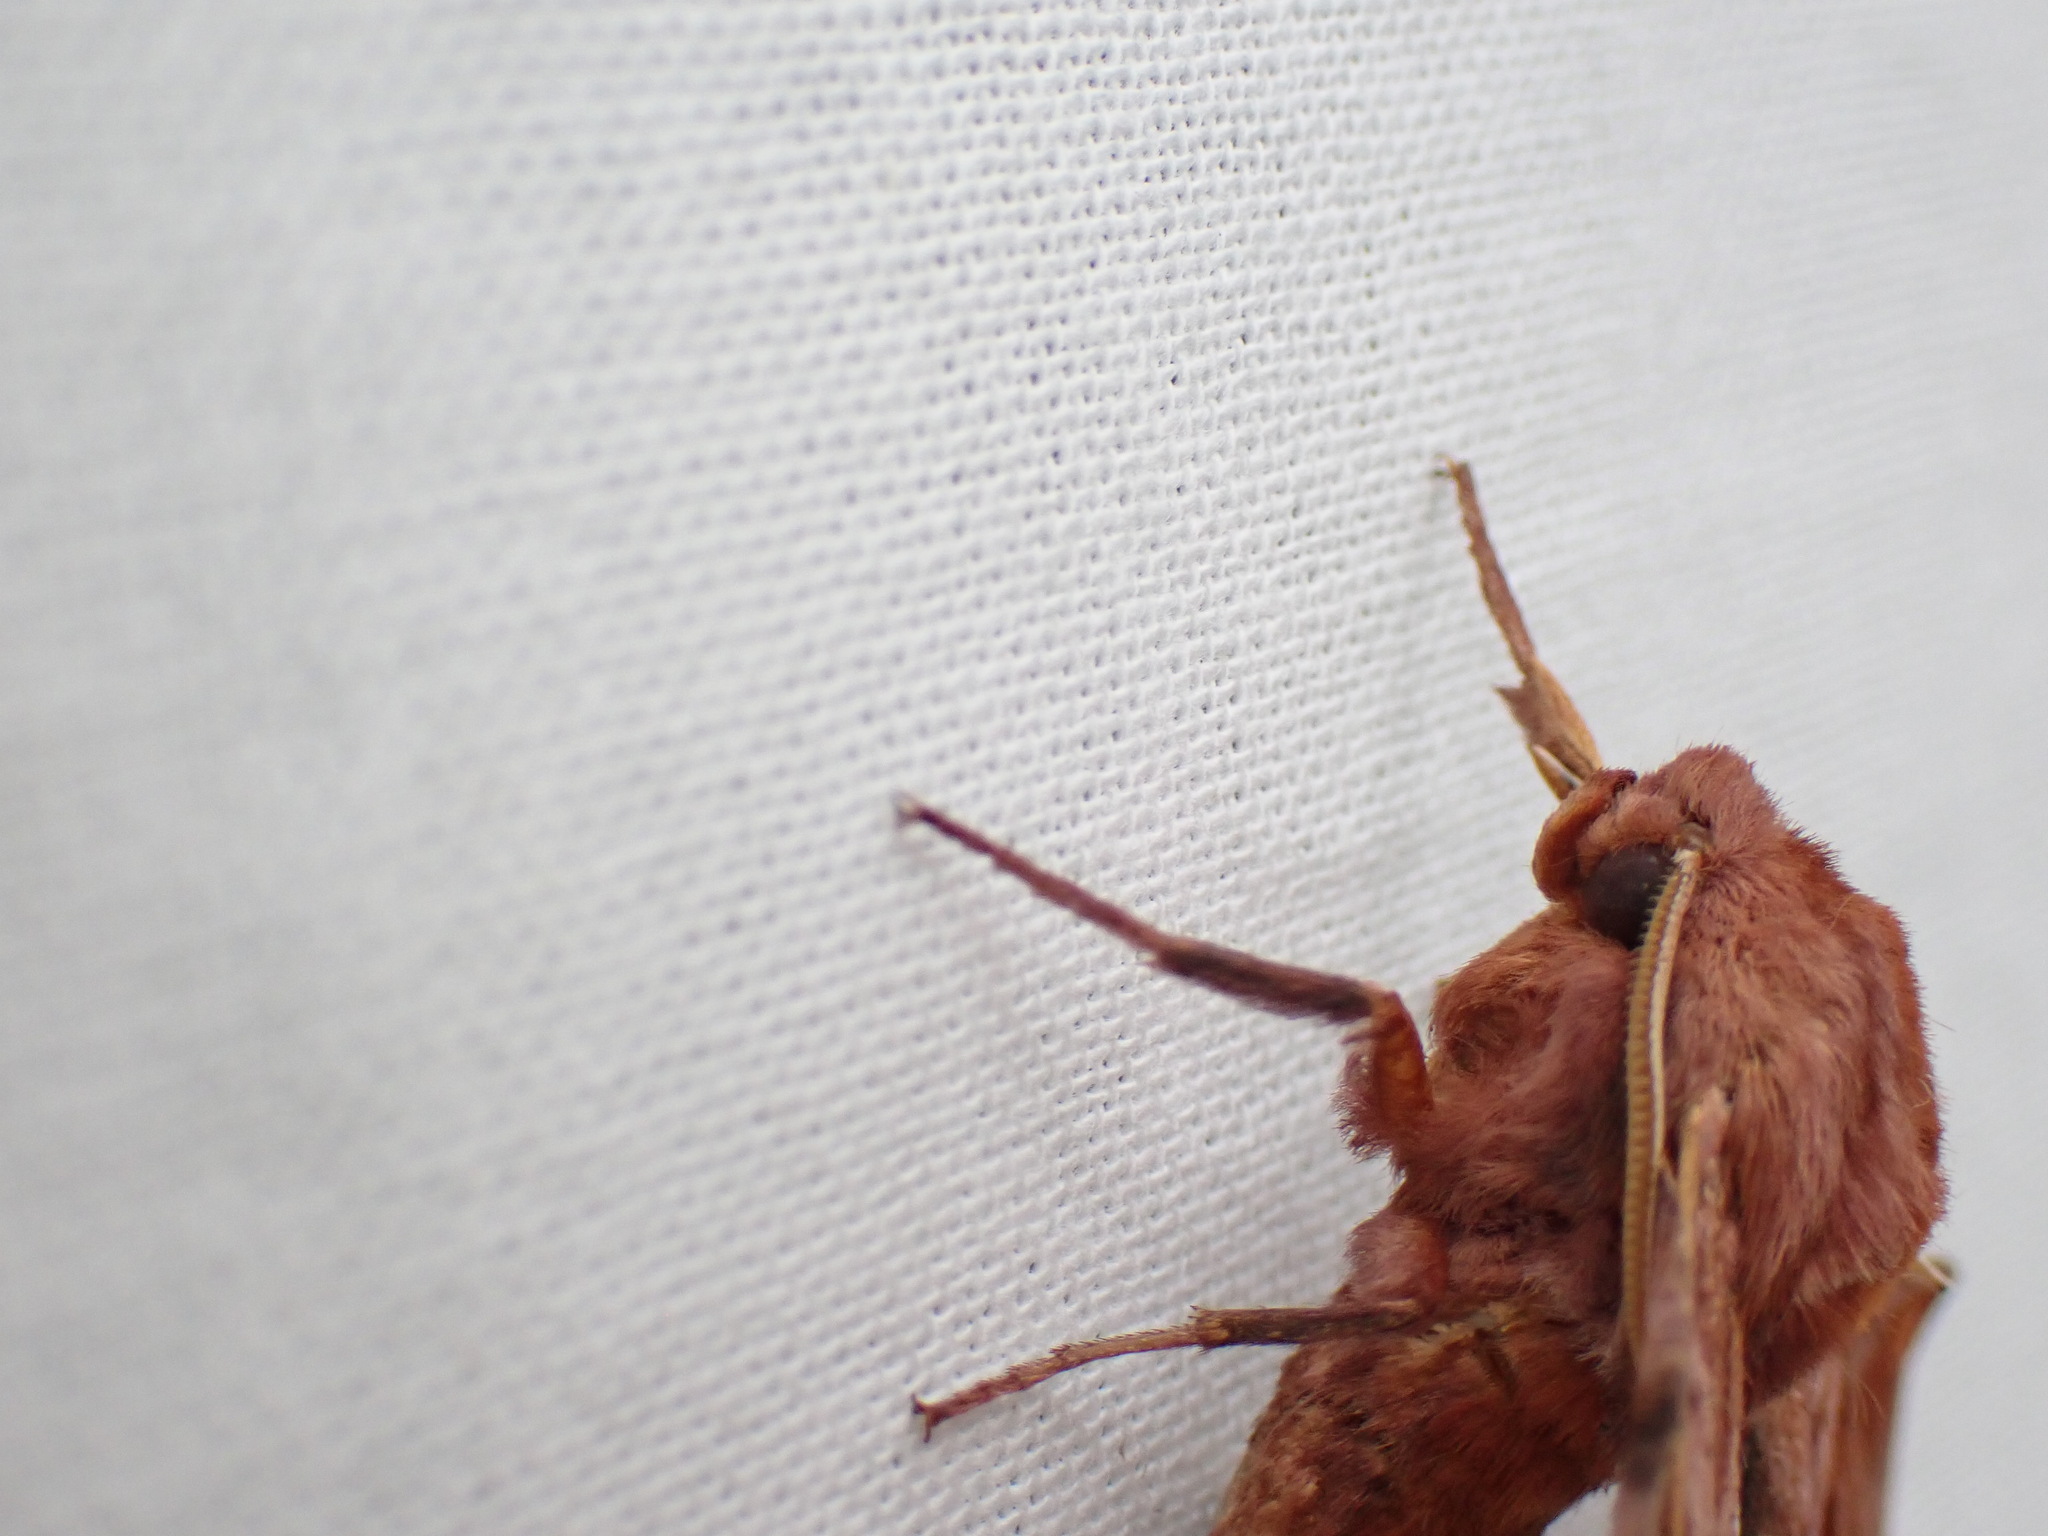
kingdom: Animalia
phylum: Arthropoda
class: Insecta
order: Lepidoptera
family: Sphingidae
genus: Paonias
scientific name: Paonias myops
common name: Small-eyed sphinx
